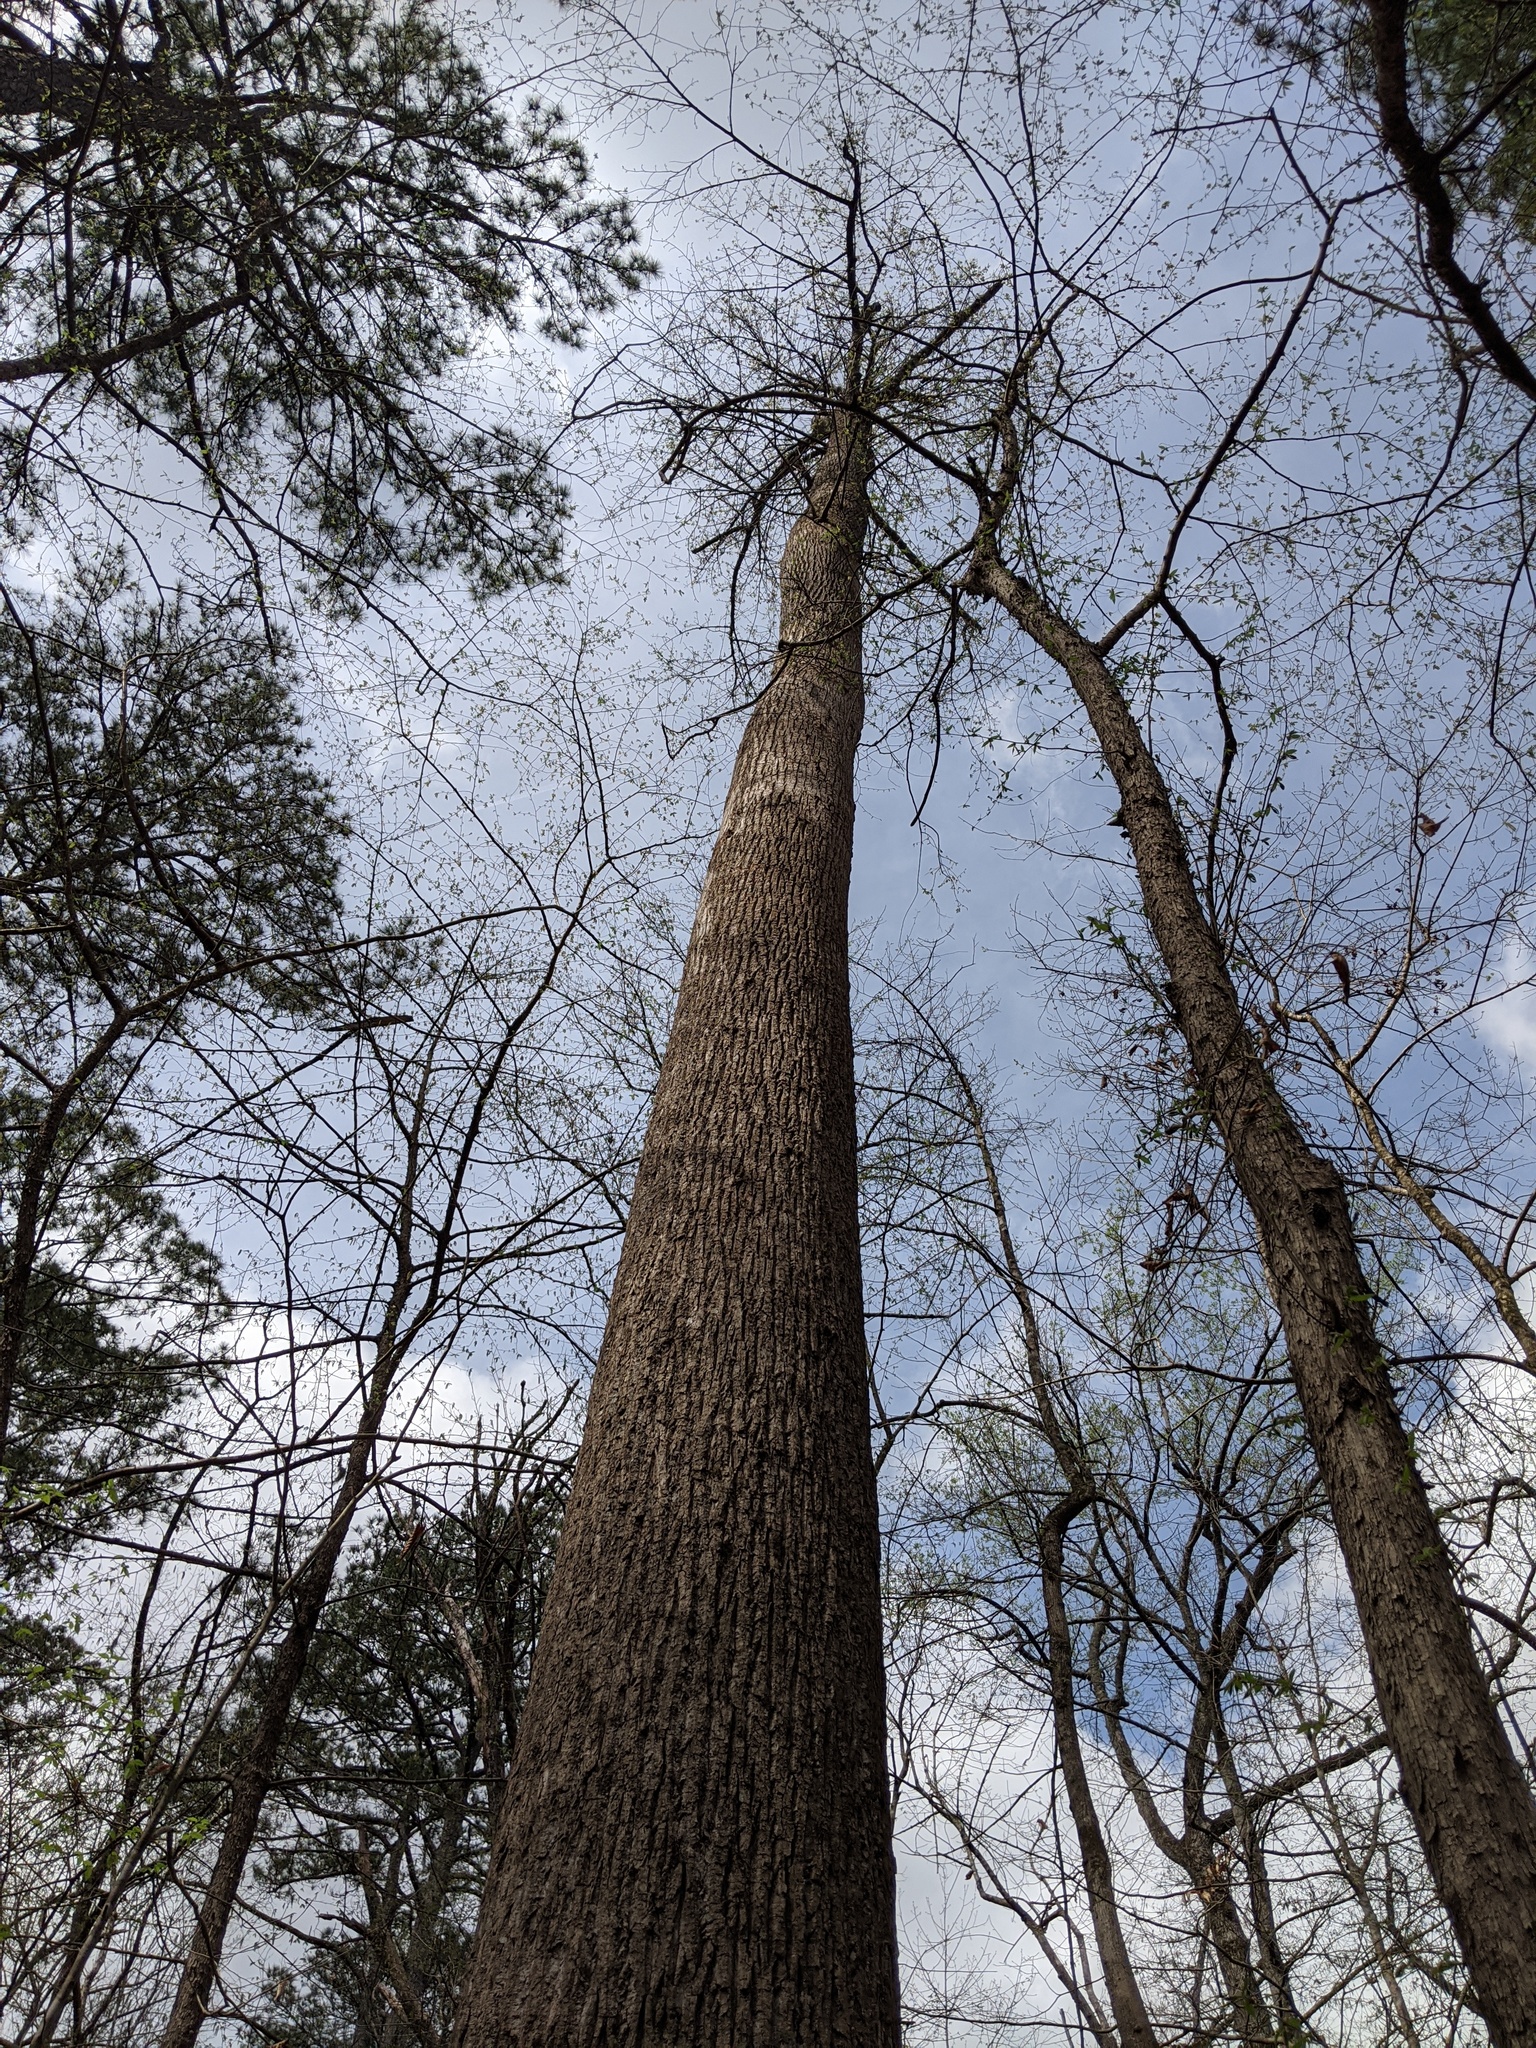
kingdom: Plantae
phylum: Tracheophyta
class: Magnoliopsida
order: Magnoliales
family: Magnoliaceae
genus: Liriodendron
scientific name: Liriodendron tulipifera
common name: Tulip tree
